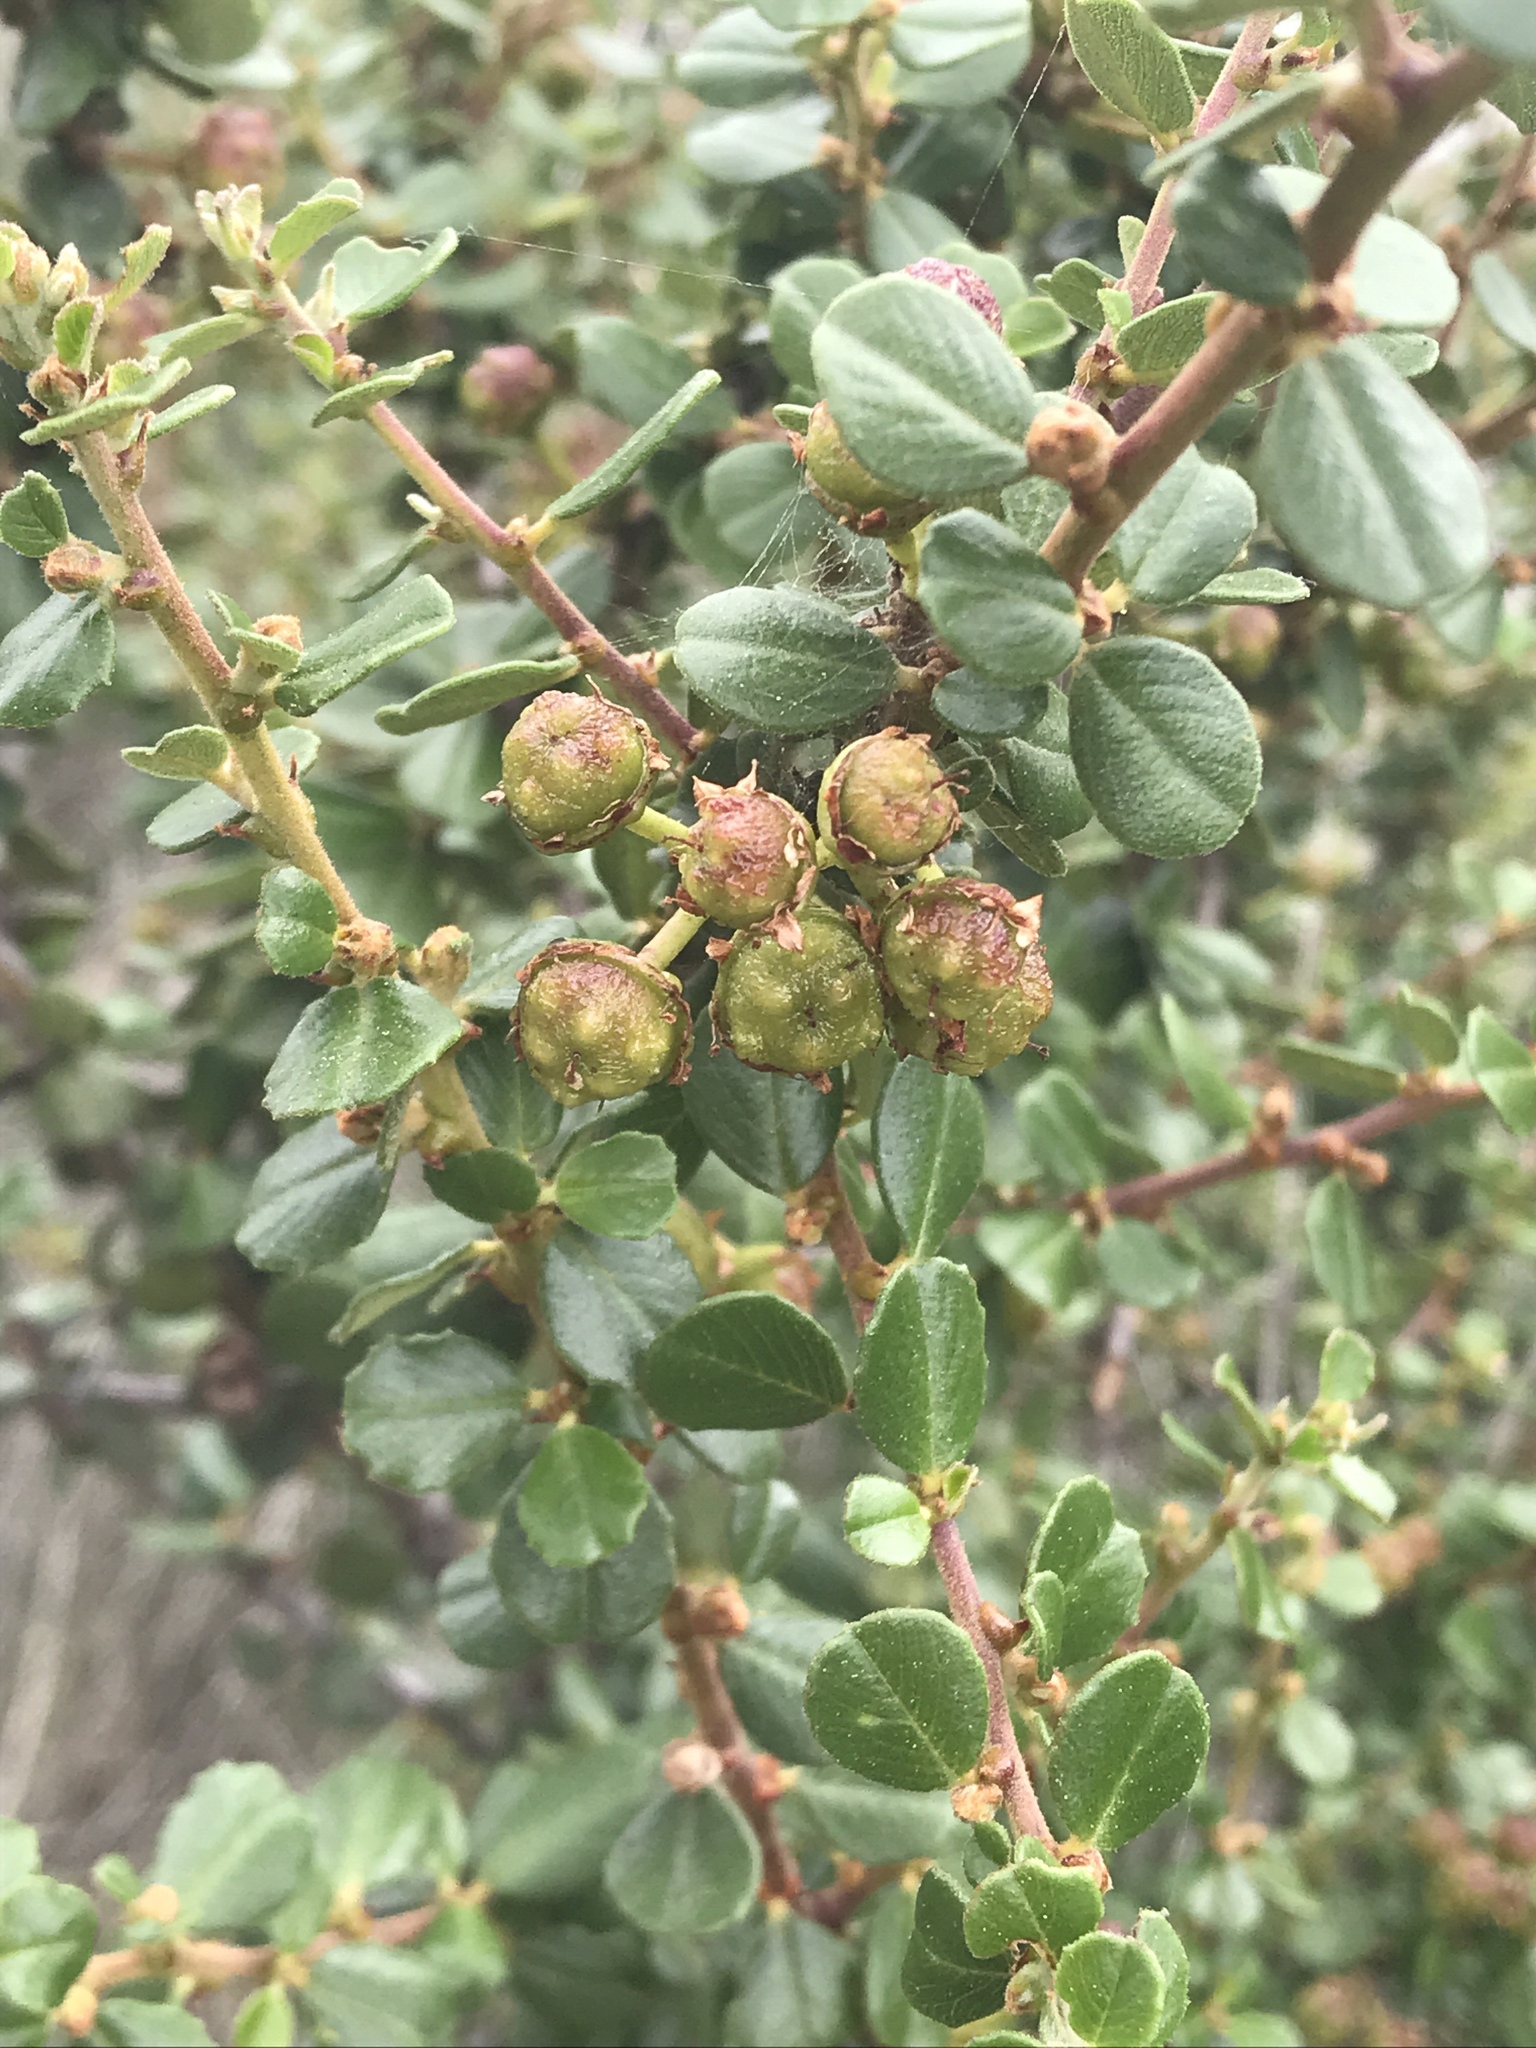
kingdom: Plantae
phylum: Tracheophyta
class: Magnoliopsida
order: Rosales
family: Rhamnaceae
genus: Ceanothus
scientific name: Ceanothus verrucosus
